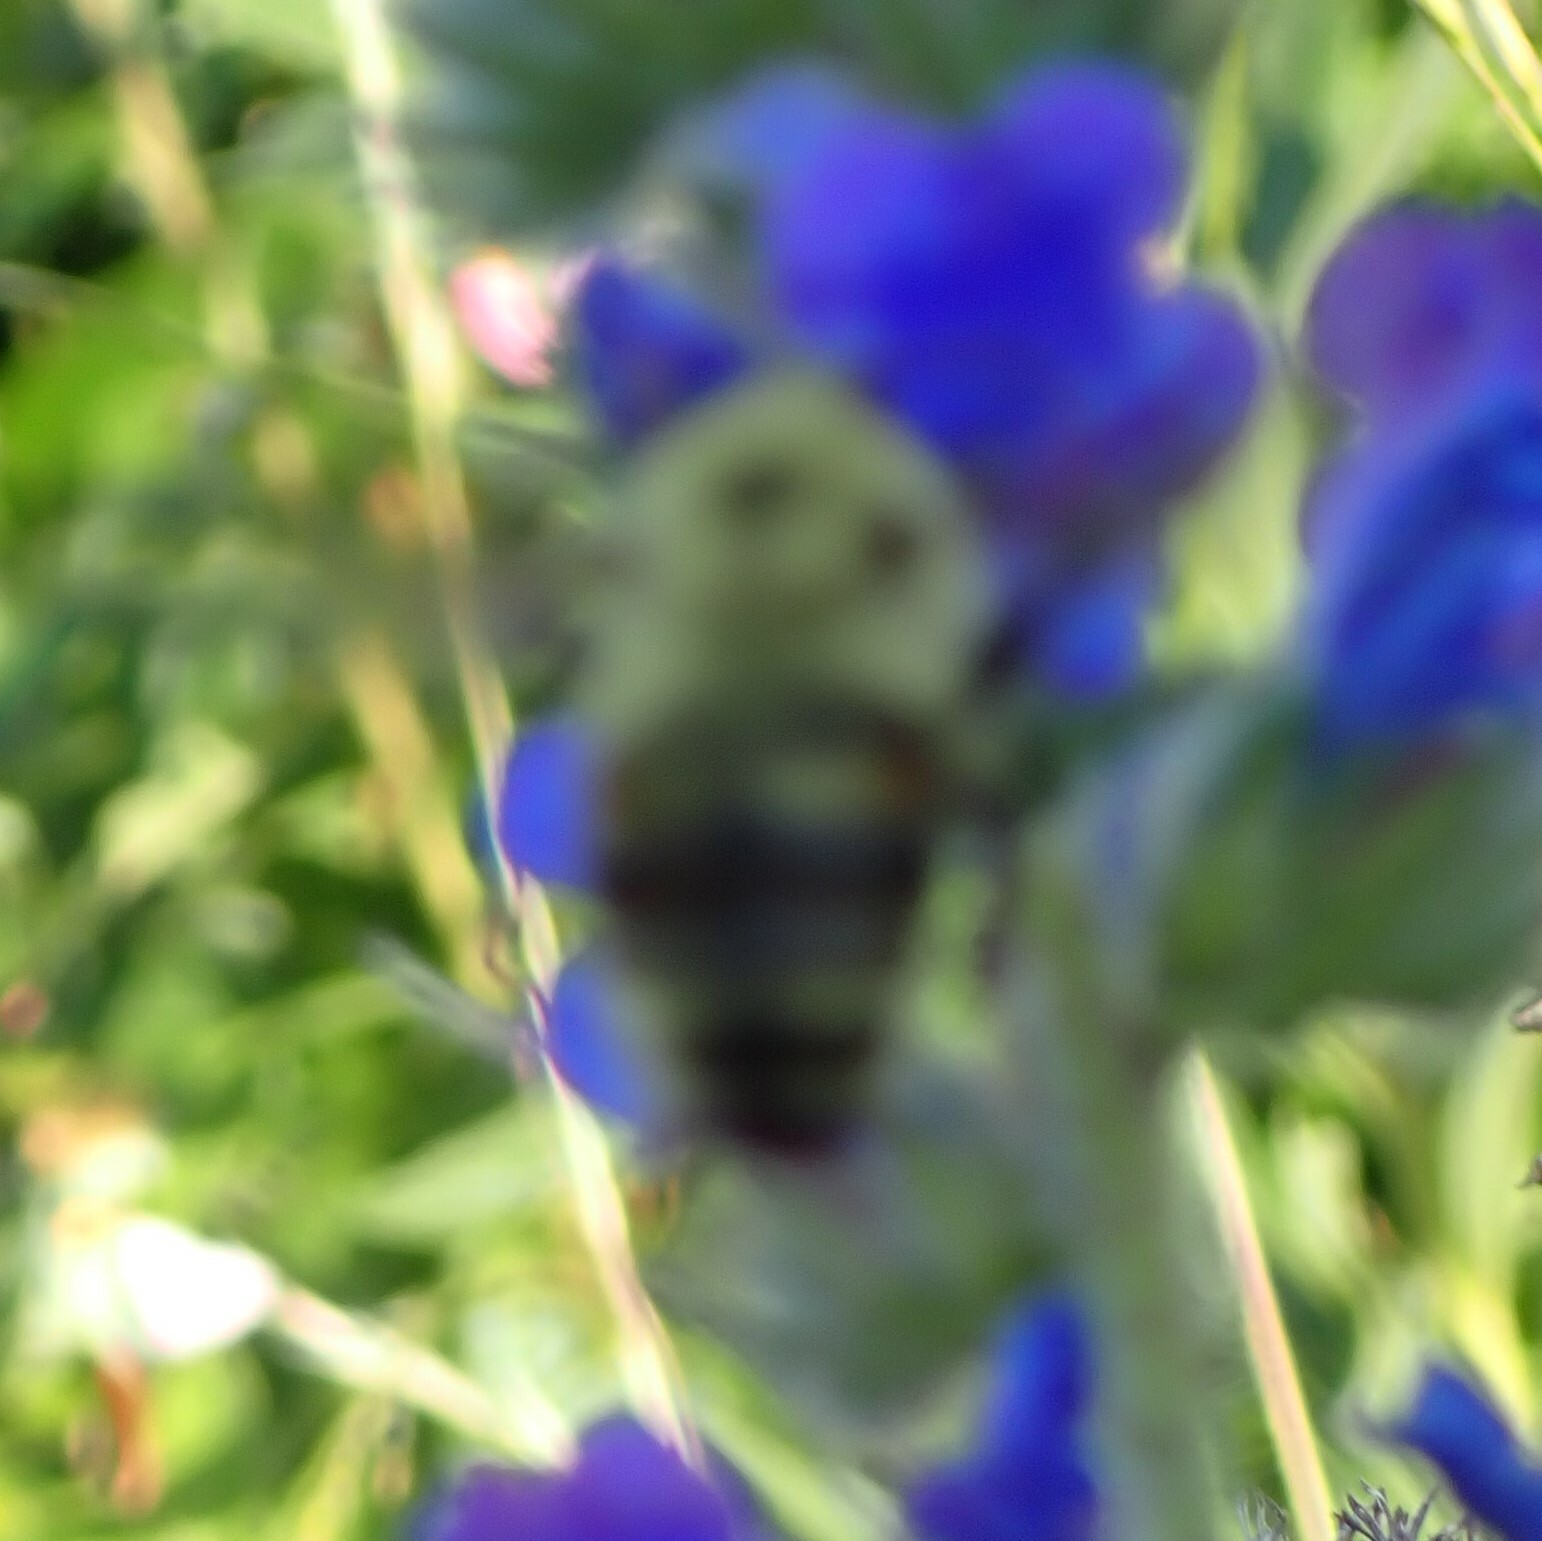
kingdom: Animalia
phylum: Arthropoda
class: Insecta
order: Hymenoptera
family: Apidae
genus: Bombus
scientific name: Bombus bimaculatus
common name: Two-spotted bumble bee
